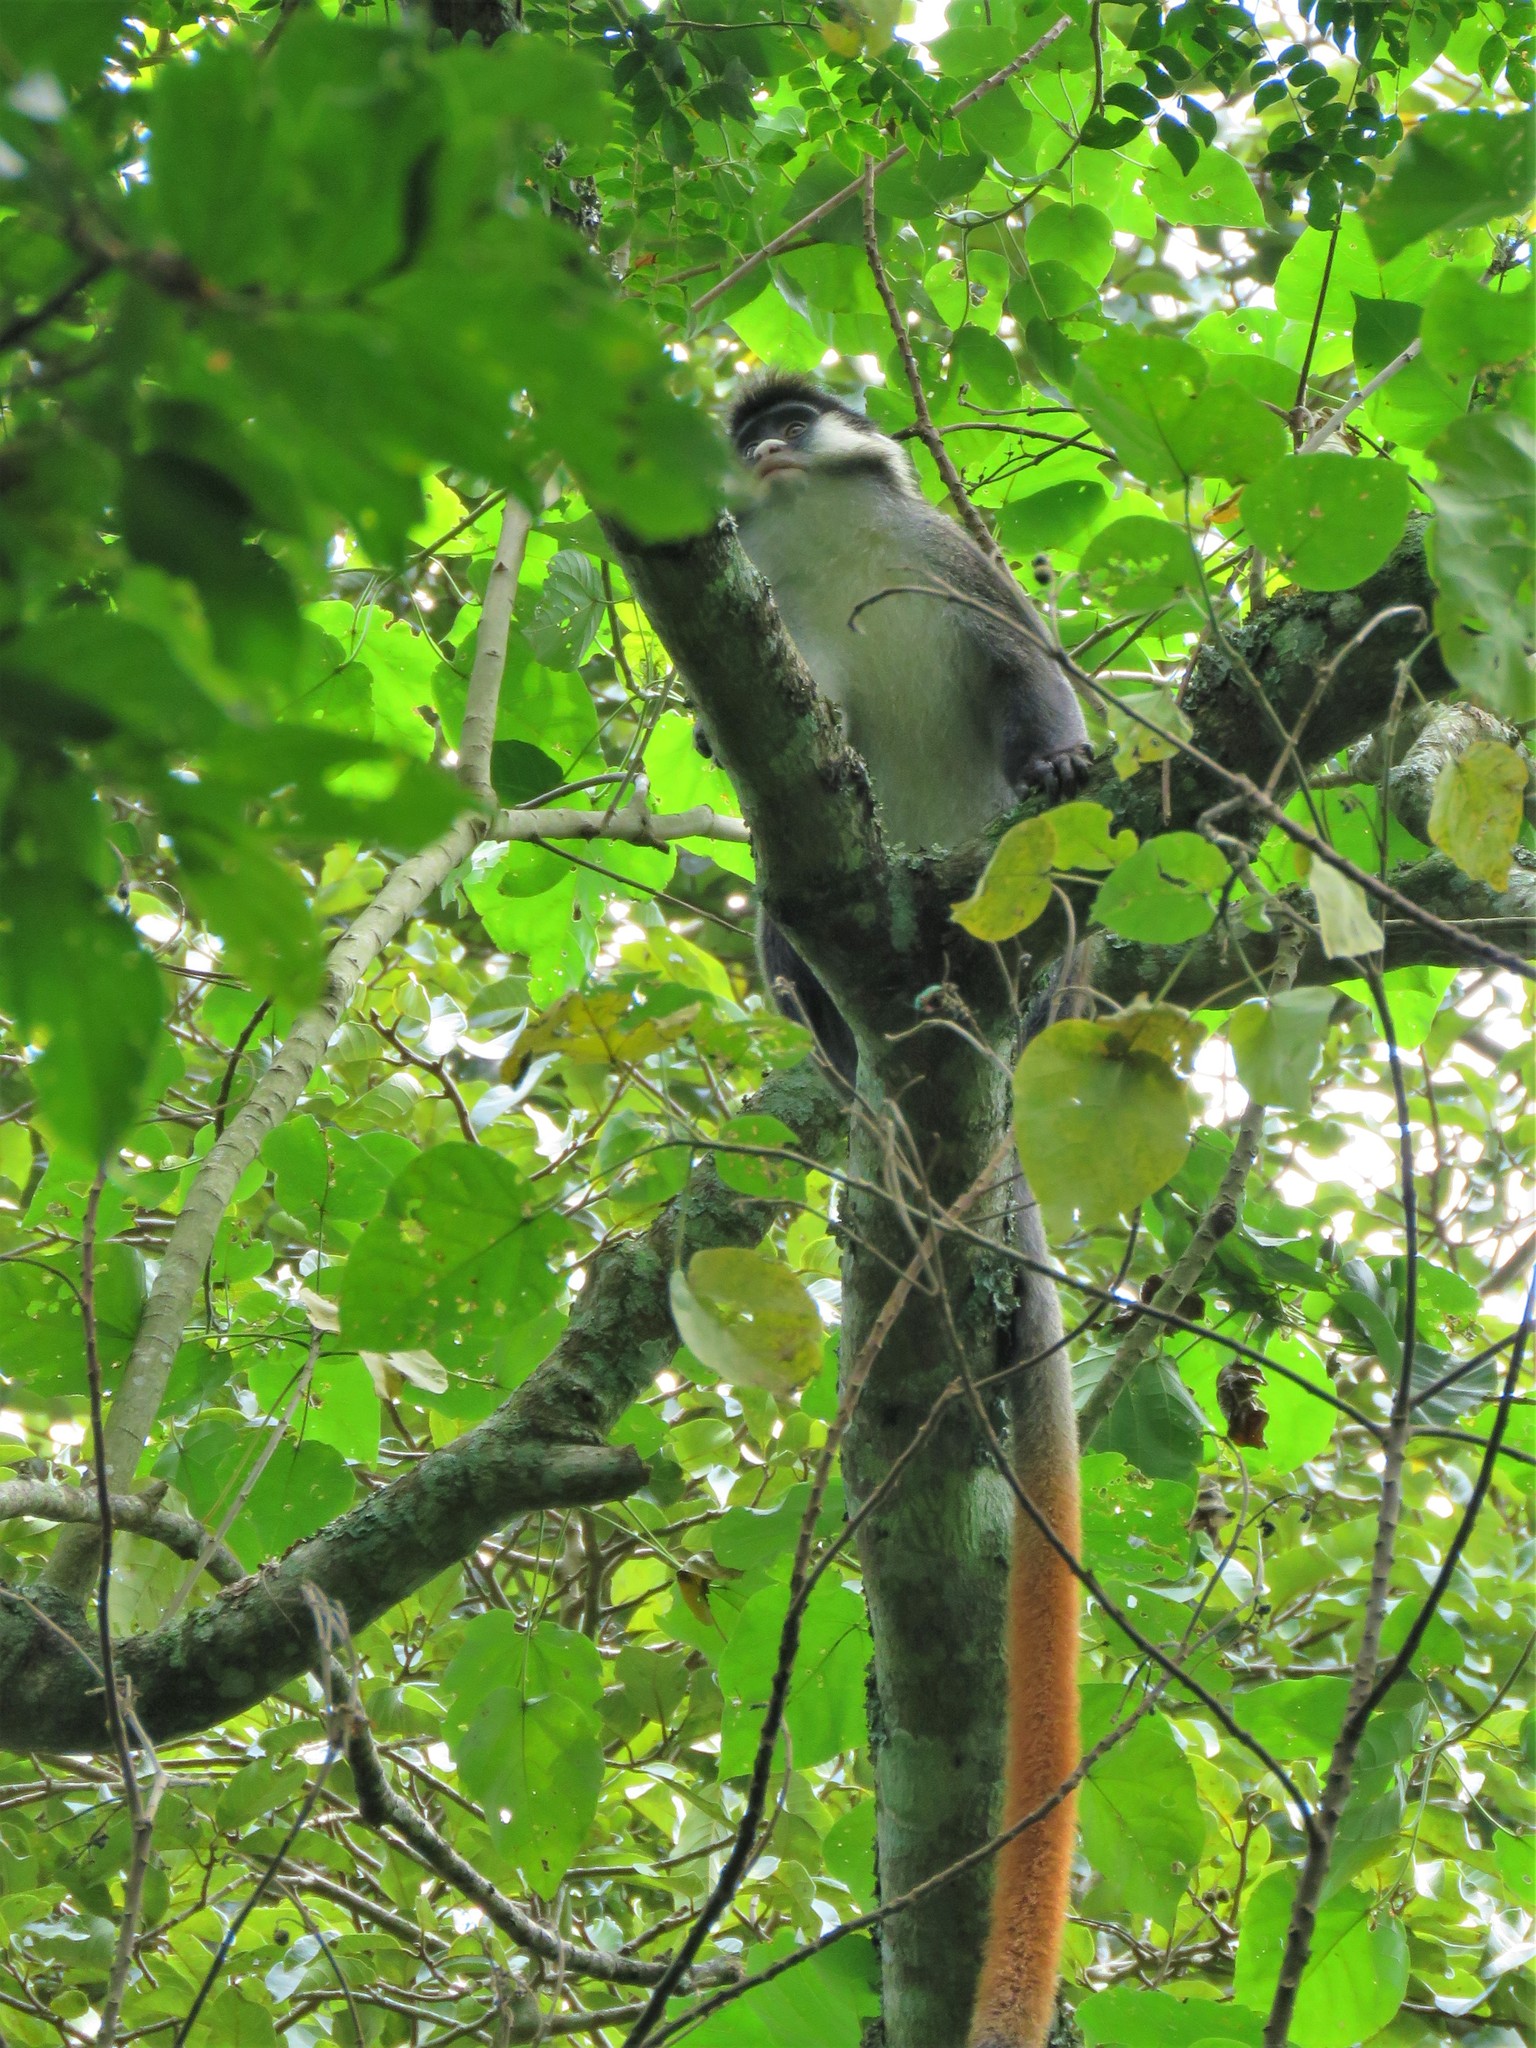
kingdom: Animalia
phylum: Chordata
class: Mammalia
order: Primates
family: Cercopithecidae
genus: Cercopithecus
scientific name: Cercopithecus ascanius
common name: Red-tailed monkey
